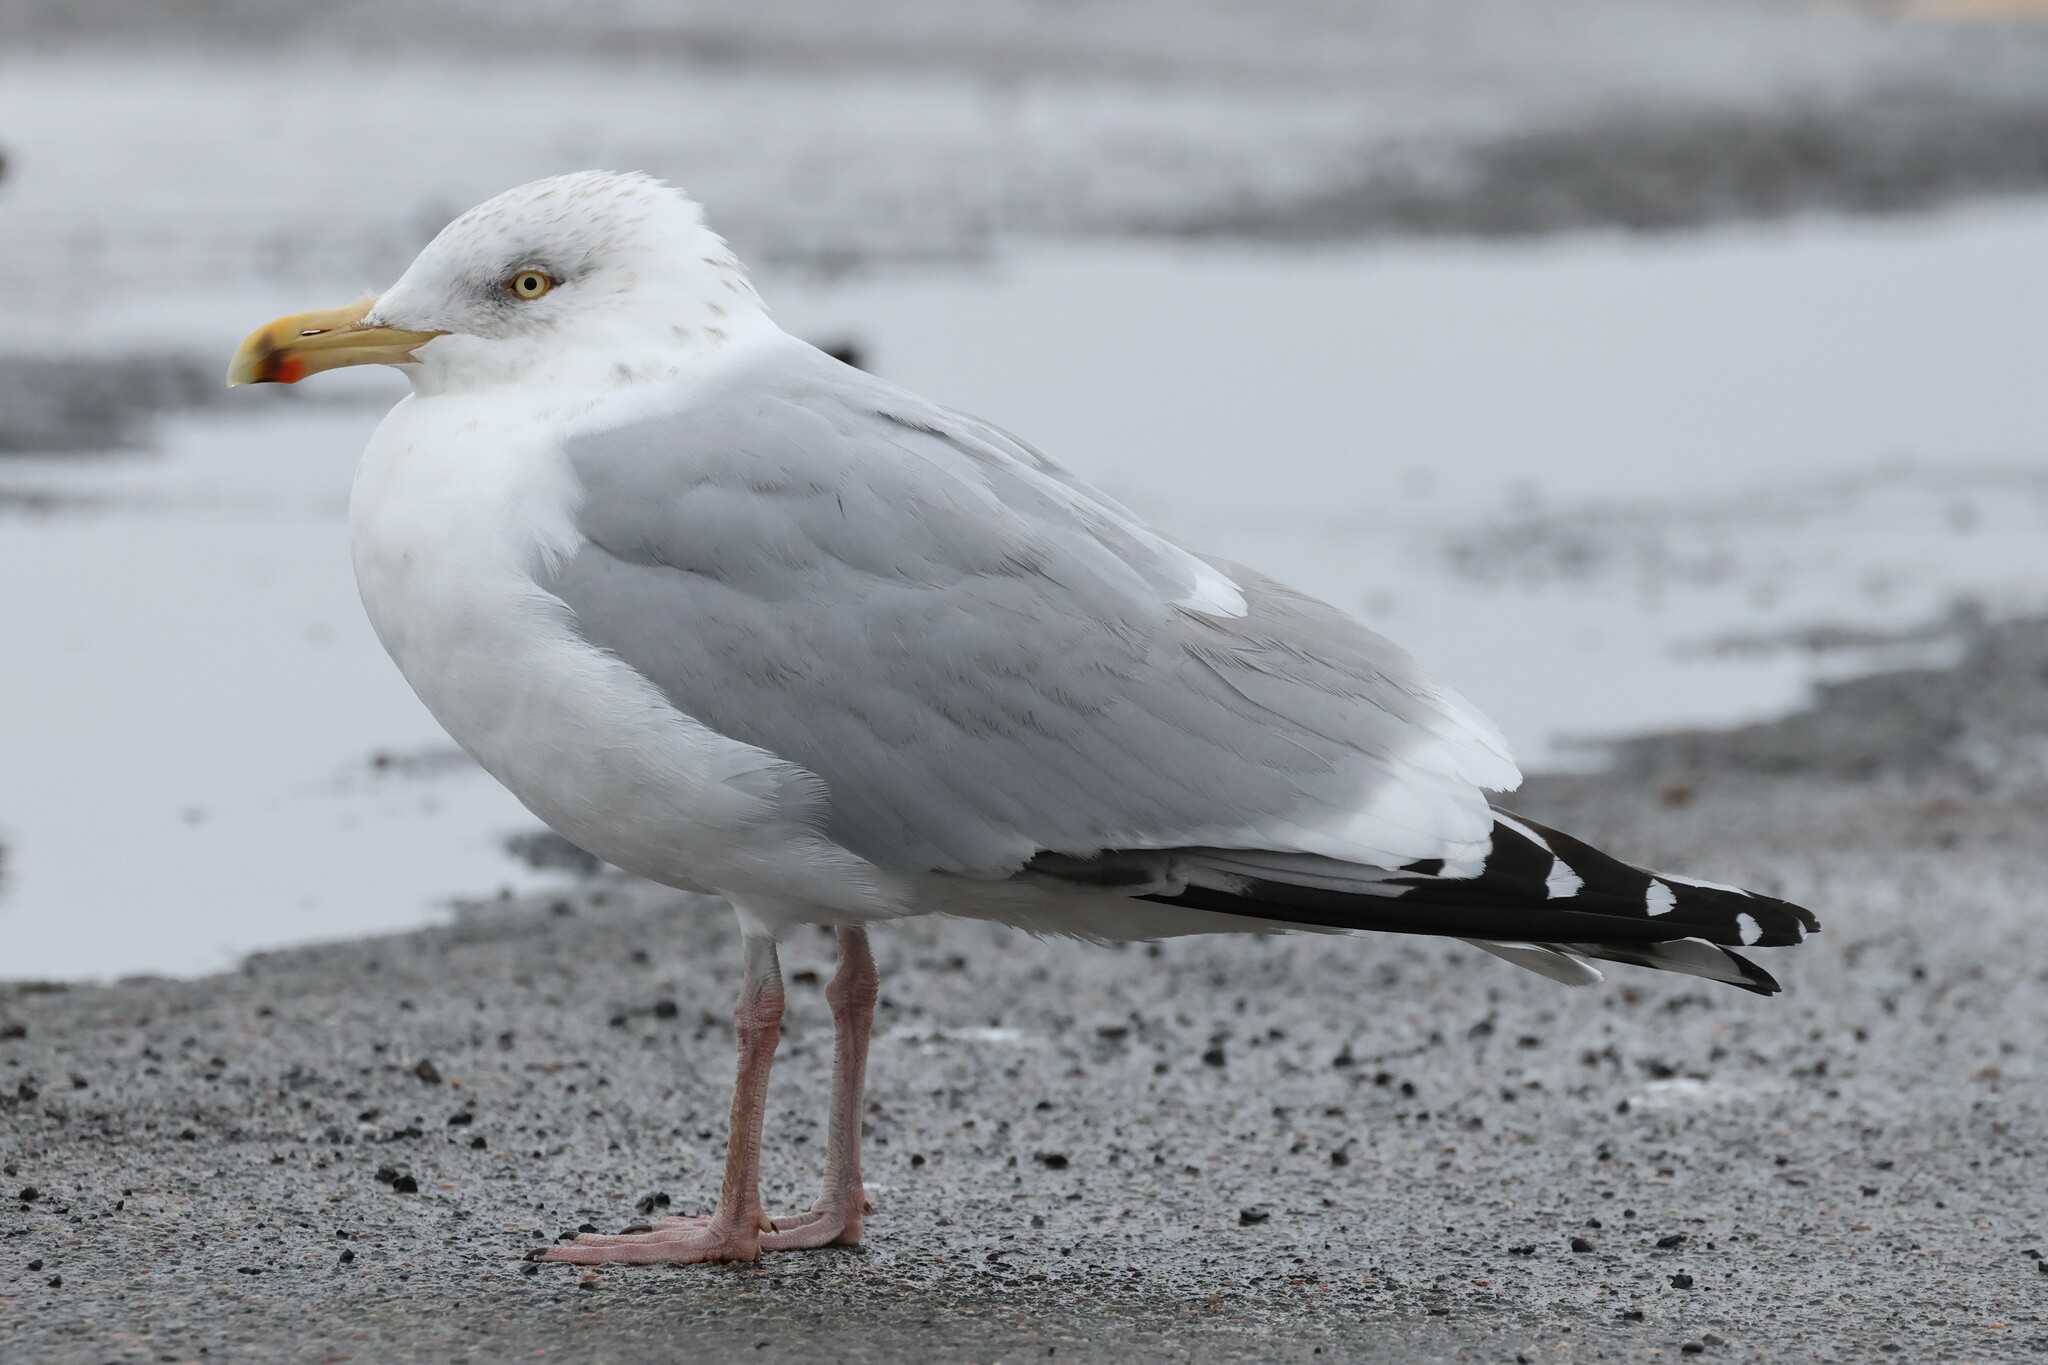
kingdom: Animalia
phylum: Chordata
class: Aves
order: Charadriiformes
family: Laridae
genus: Larus
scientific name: Larus argentatus
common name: Herring gull
